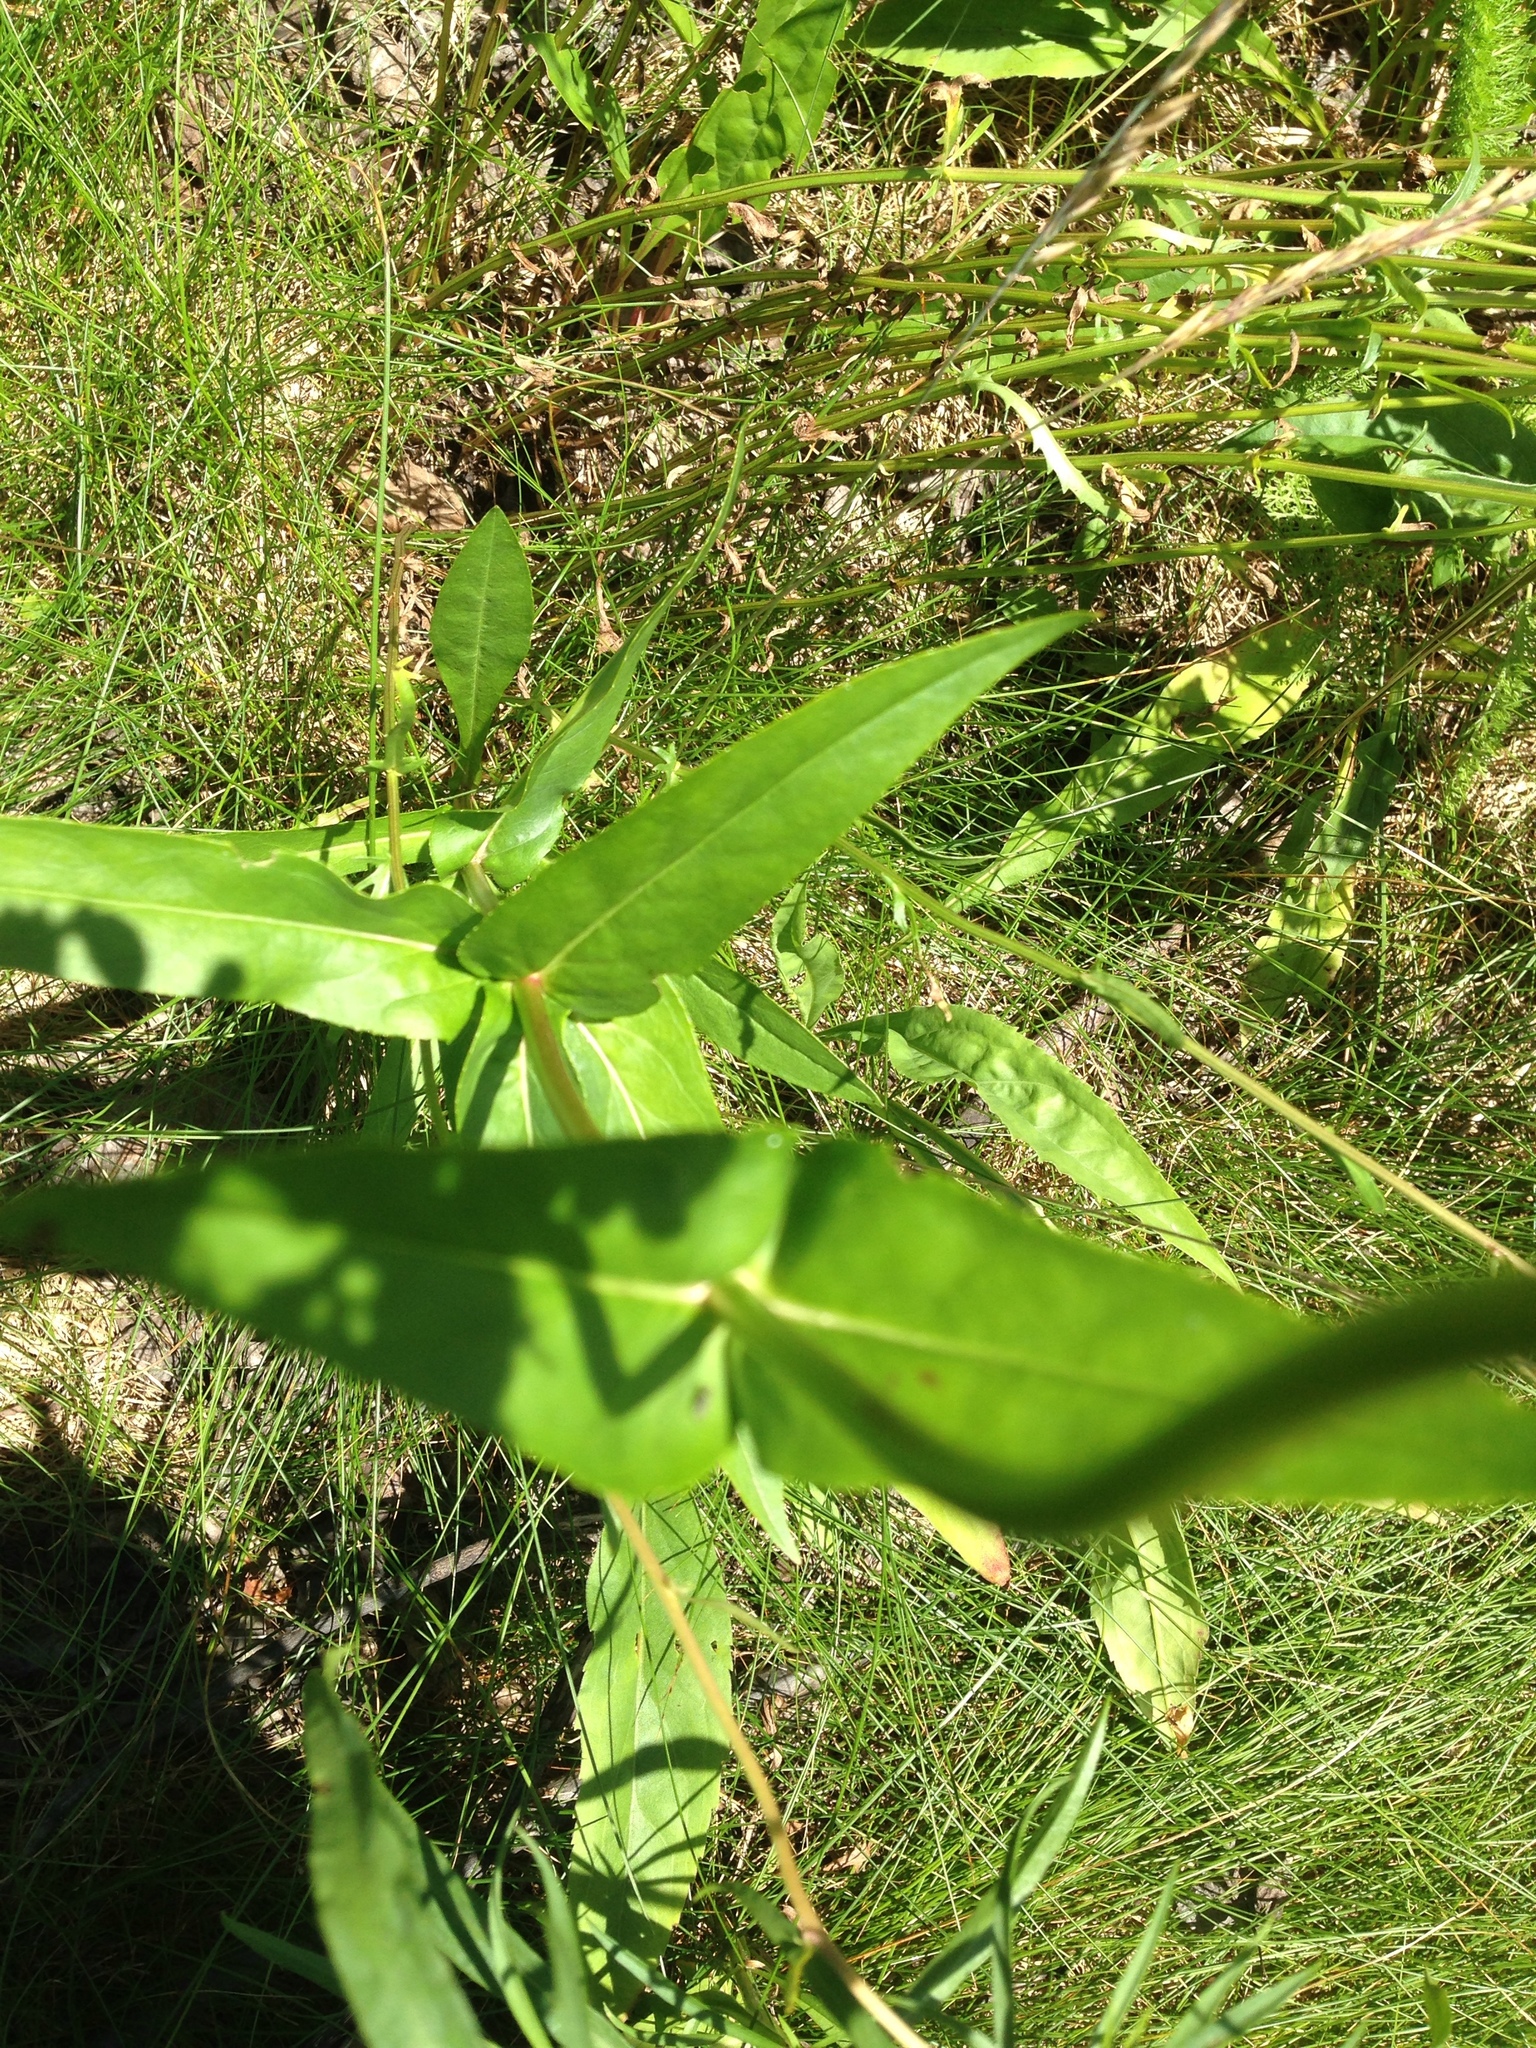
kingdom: Plantae
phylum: Tracheophyta
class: Magnoliopsida
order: Lamiales
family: Plantaginaceae
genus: Penstemon
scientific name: Penstemon digitalis
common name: Foxglove beardtongue
